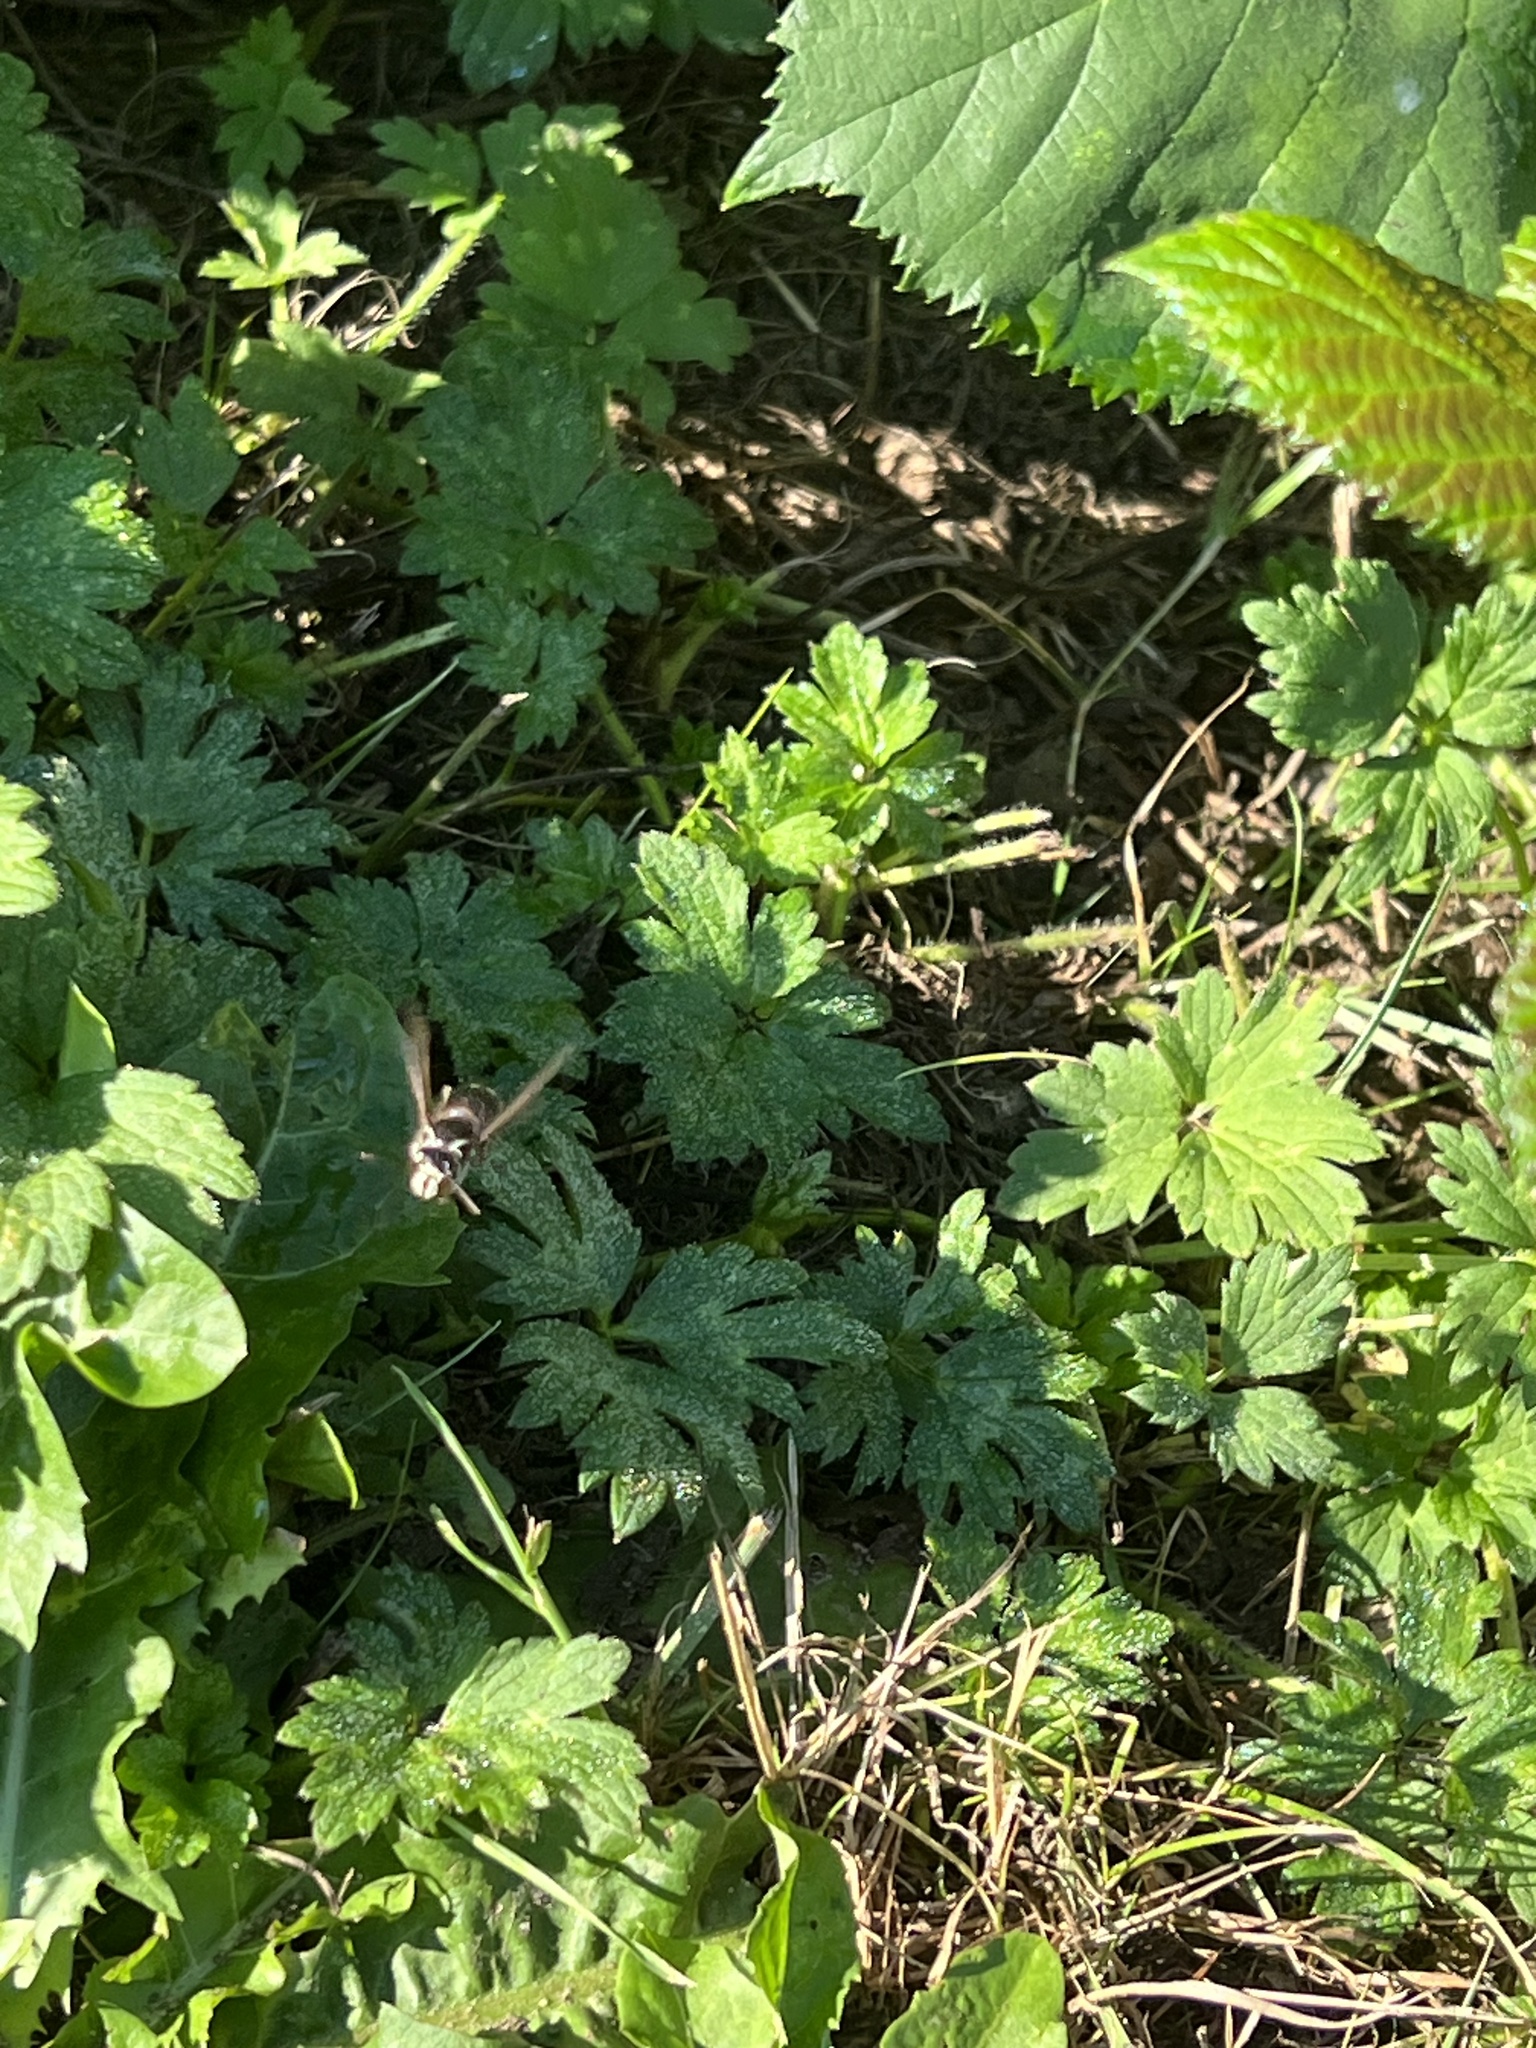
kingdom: Animalia
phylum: Arthropoda
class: Insecta
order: Hymenoptera
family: Vespidae
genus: Dolichovespula
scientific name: Dolichovespula maculata
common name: Bald-faced hornet
